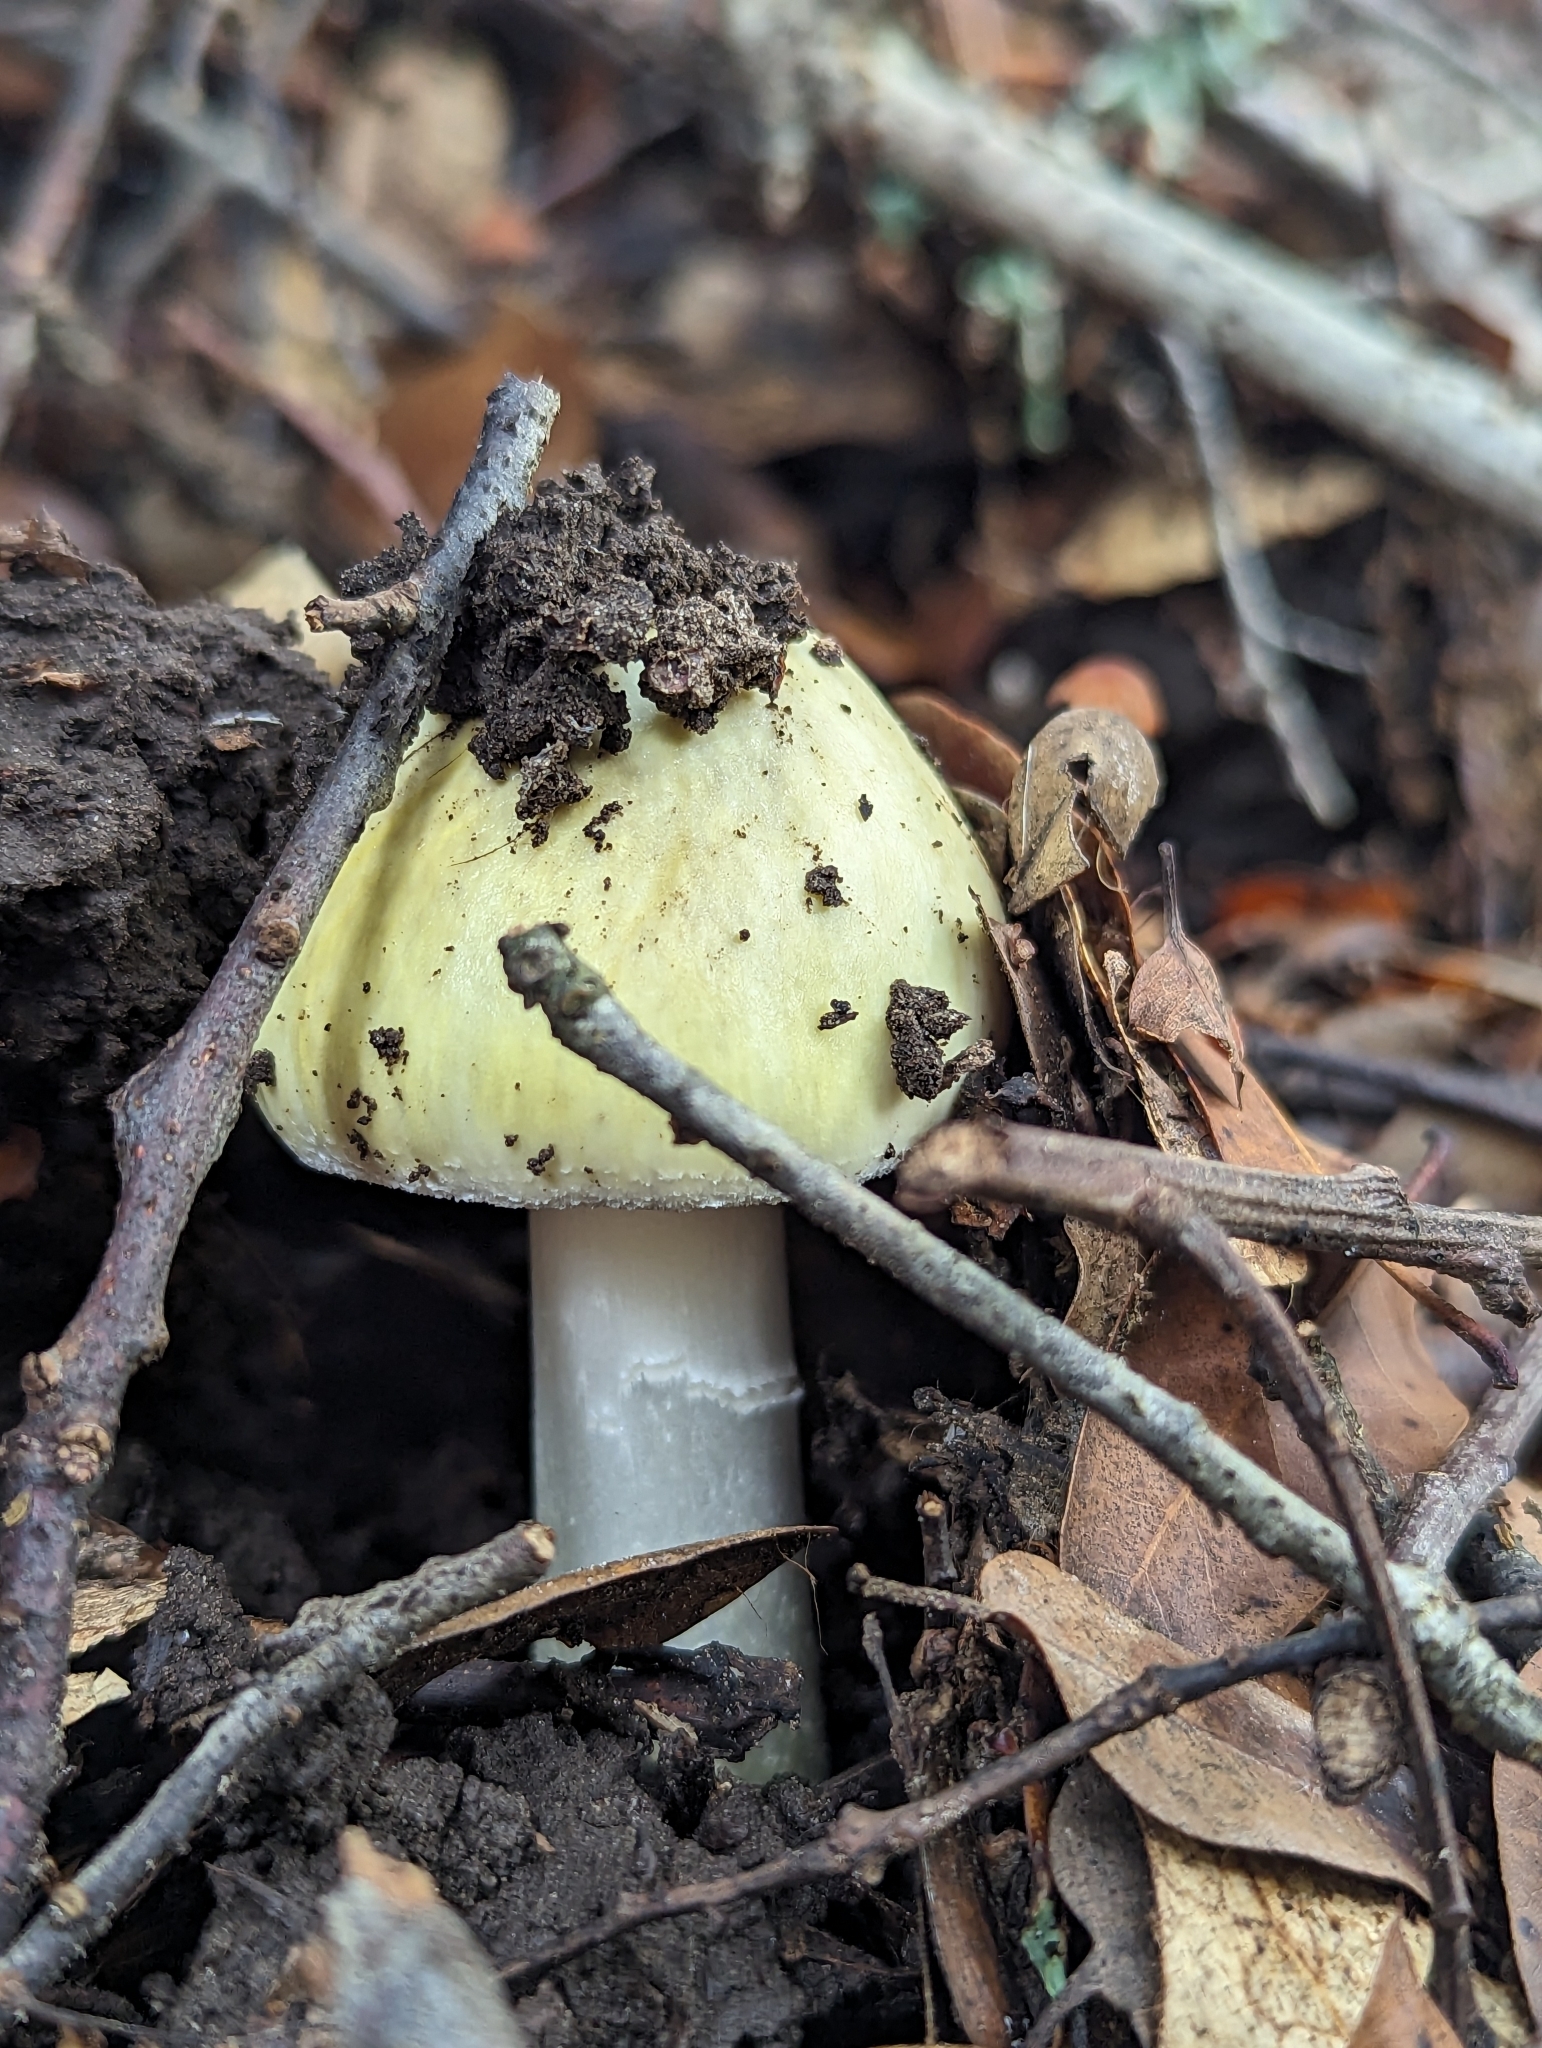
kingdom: Fungi
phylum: Basidiomycota
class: Agaricomycetes
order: Agaricales
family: Amanitaceae
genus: Amanita
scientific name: Amanita phalloides
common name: Death cap
